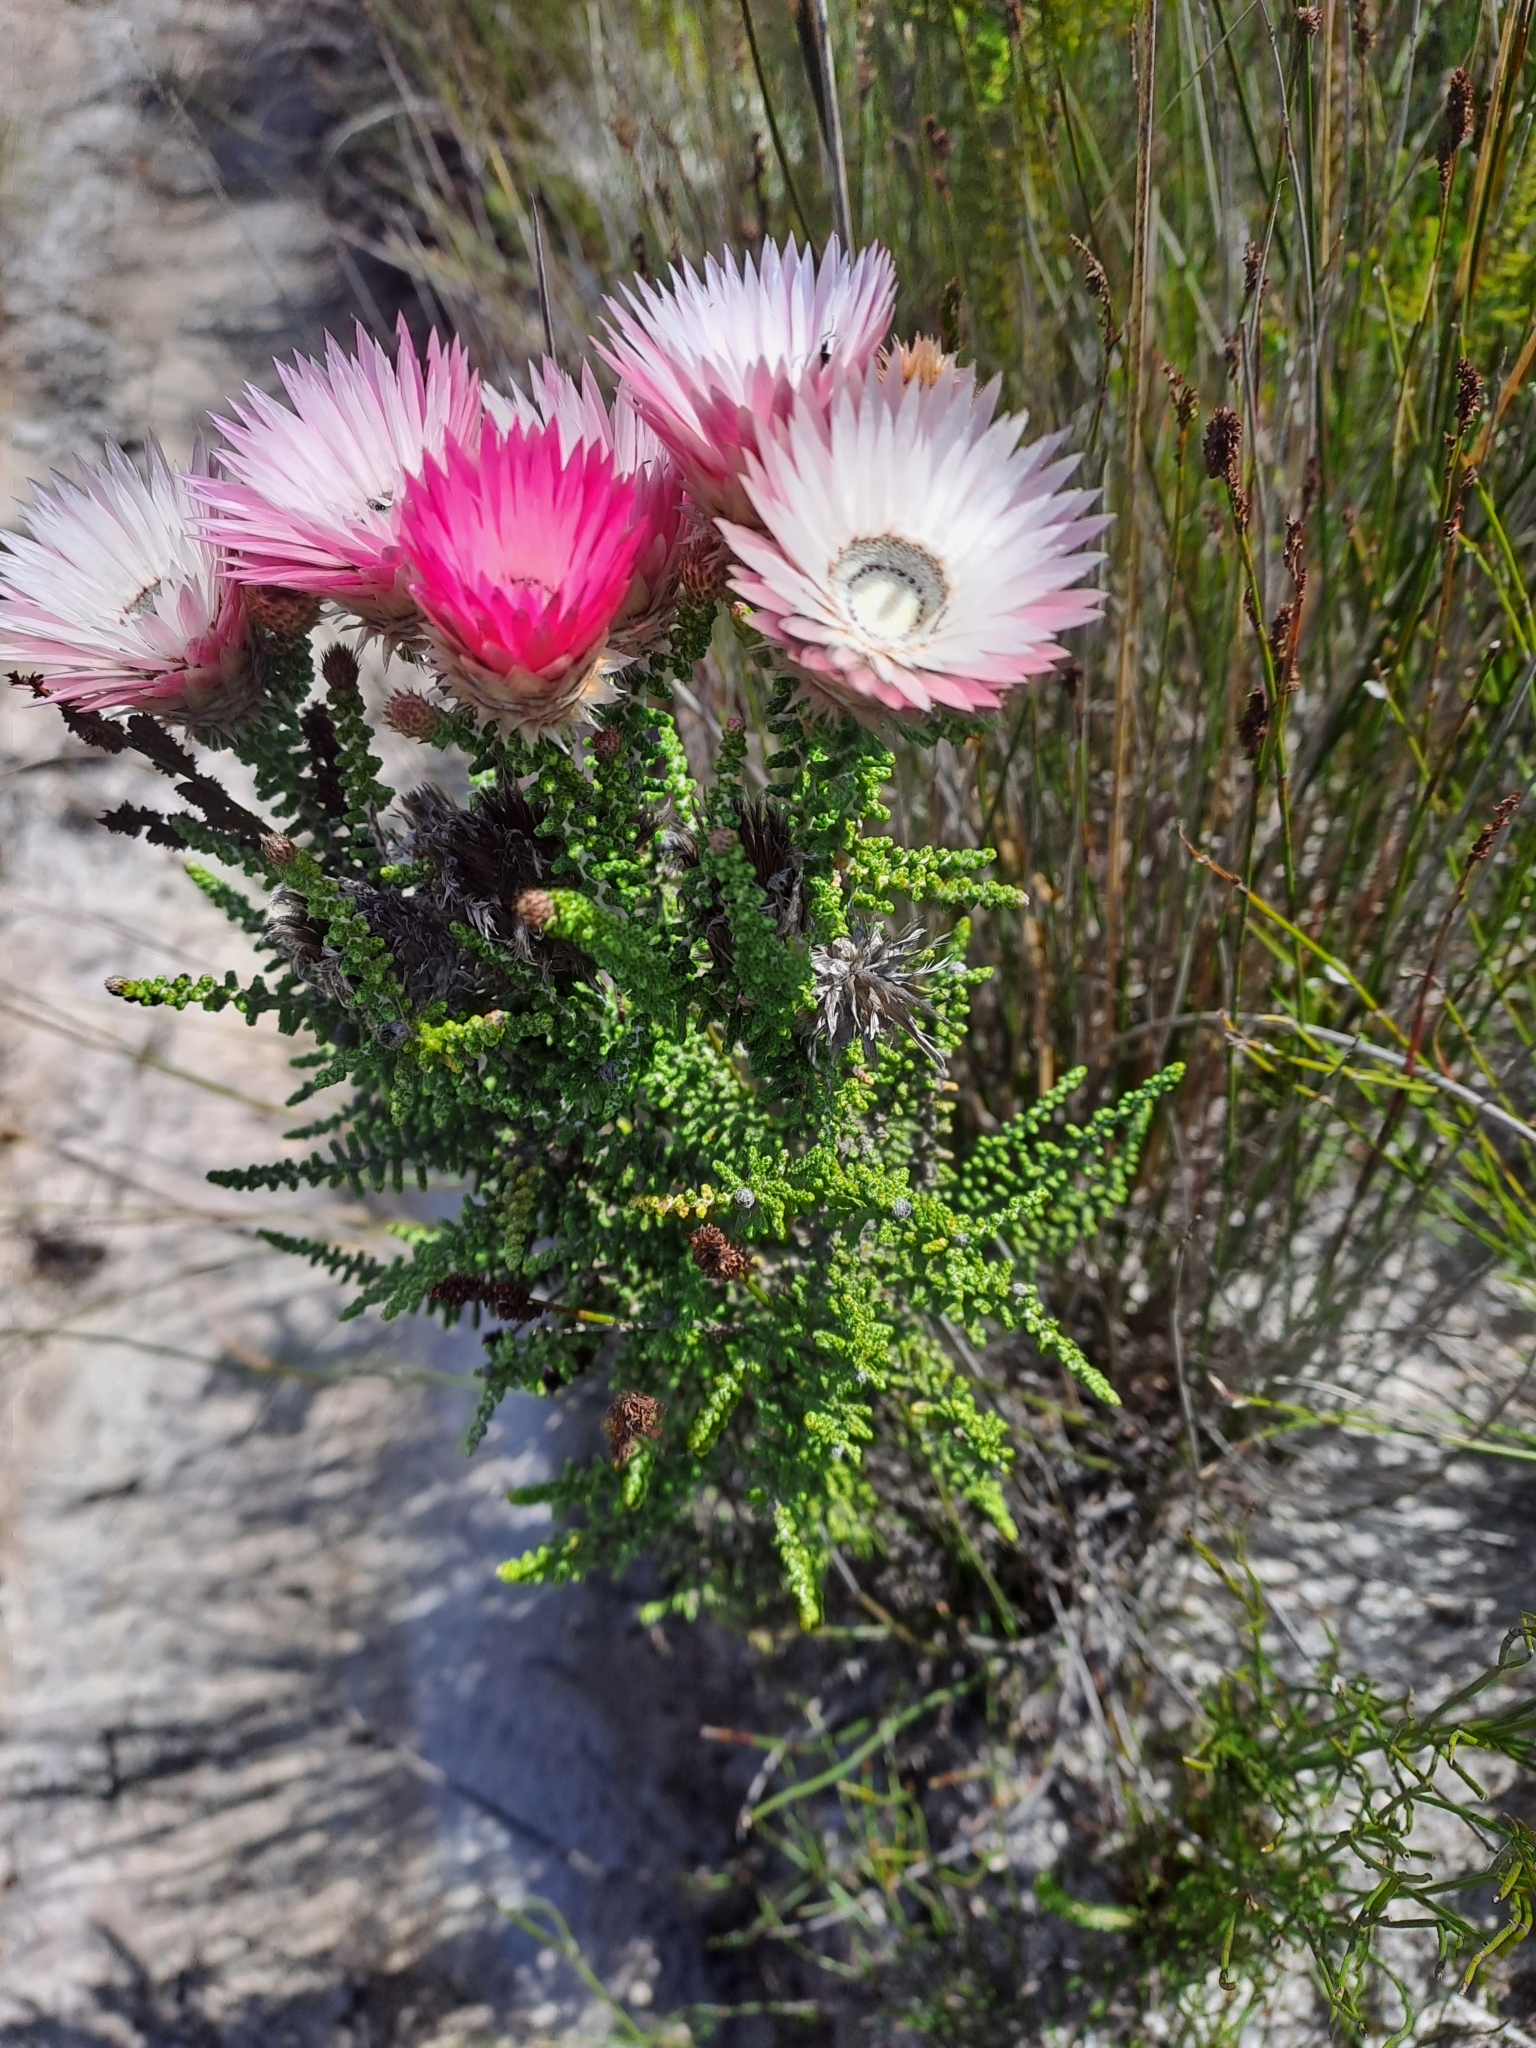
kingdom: Plantae
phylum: Tracheophyta
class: Magnoliopsida
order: Asterales
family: Asteraceae
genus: Phaenocoma
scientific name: Phaenocoma prolifera
